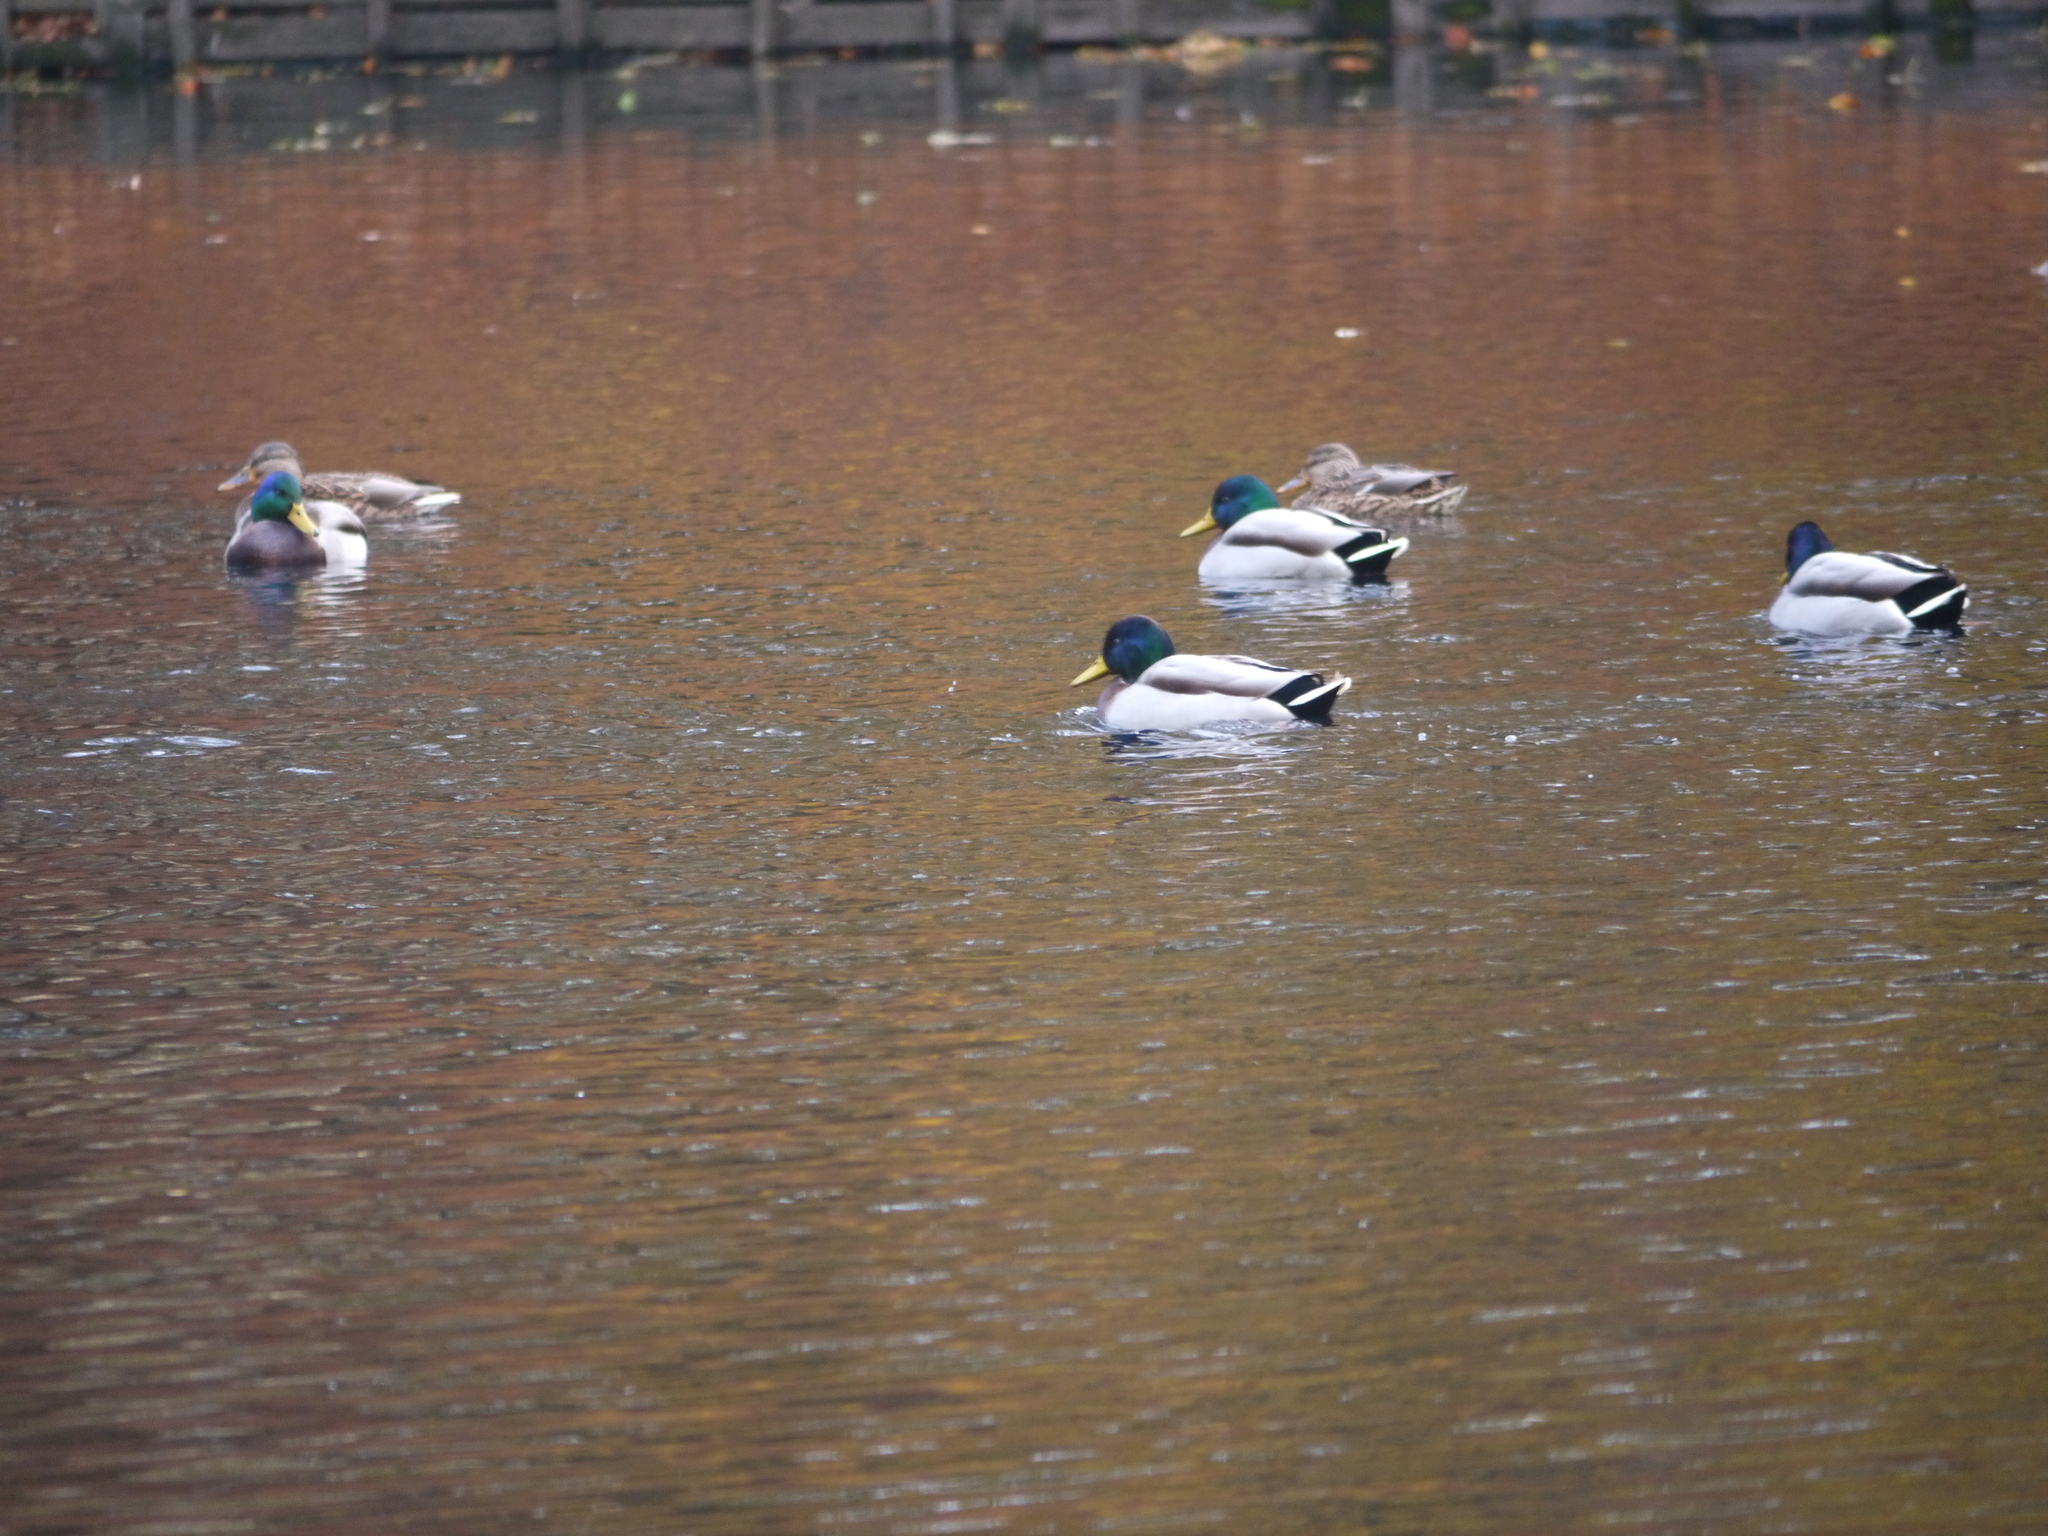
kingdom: Animalia
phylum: Chordata
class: Aves
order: Anseriformes
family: Anatidae
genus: Anas
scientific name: Anas platyrhynchos
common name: Mallard
